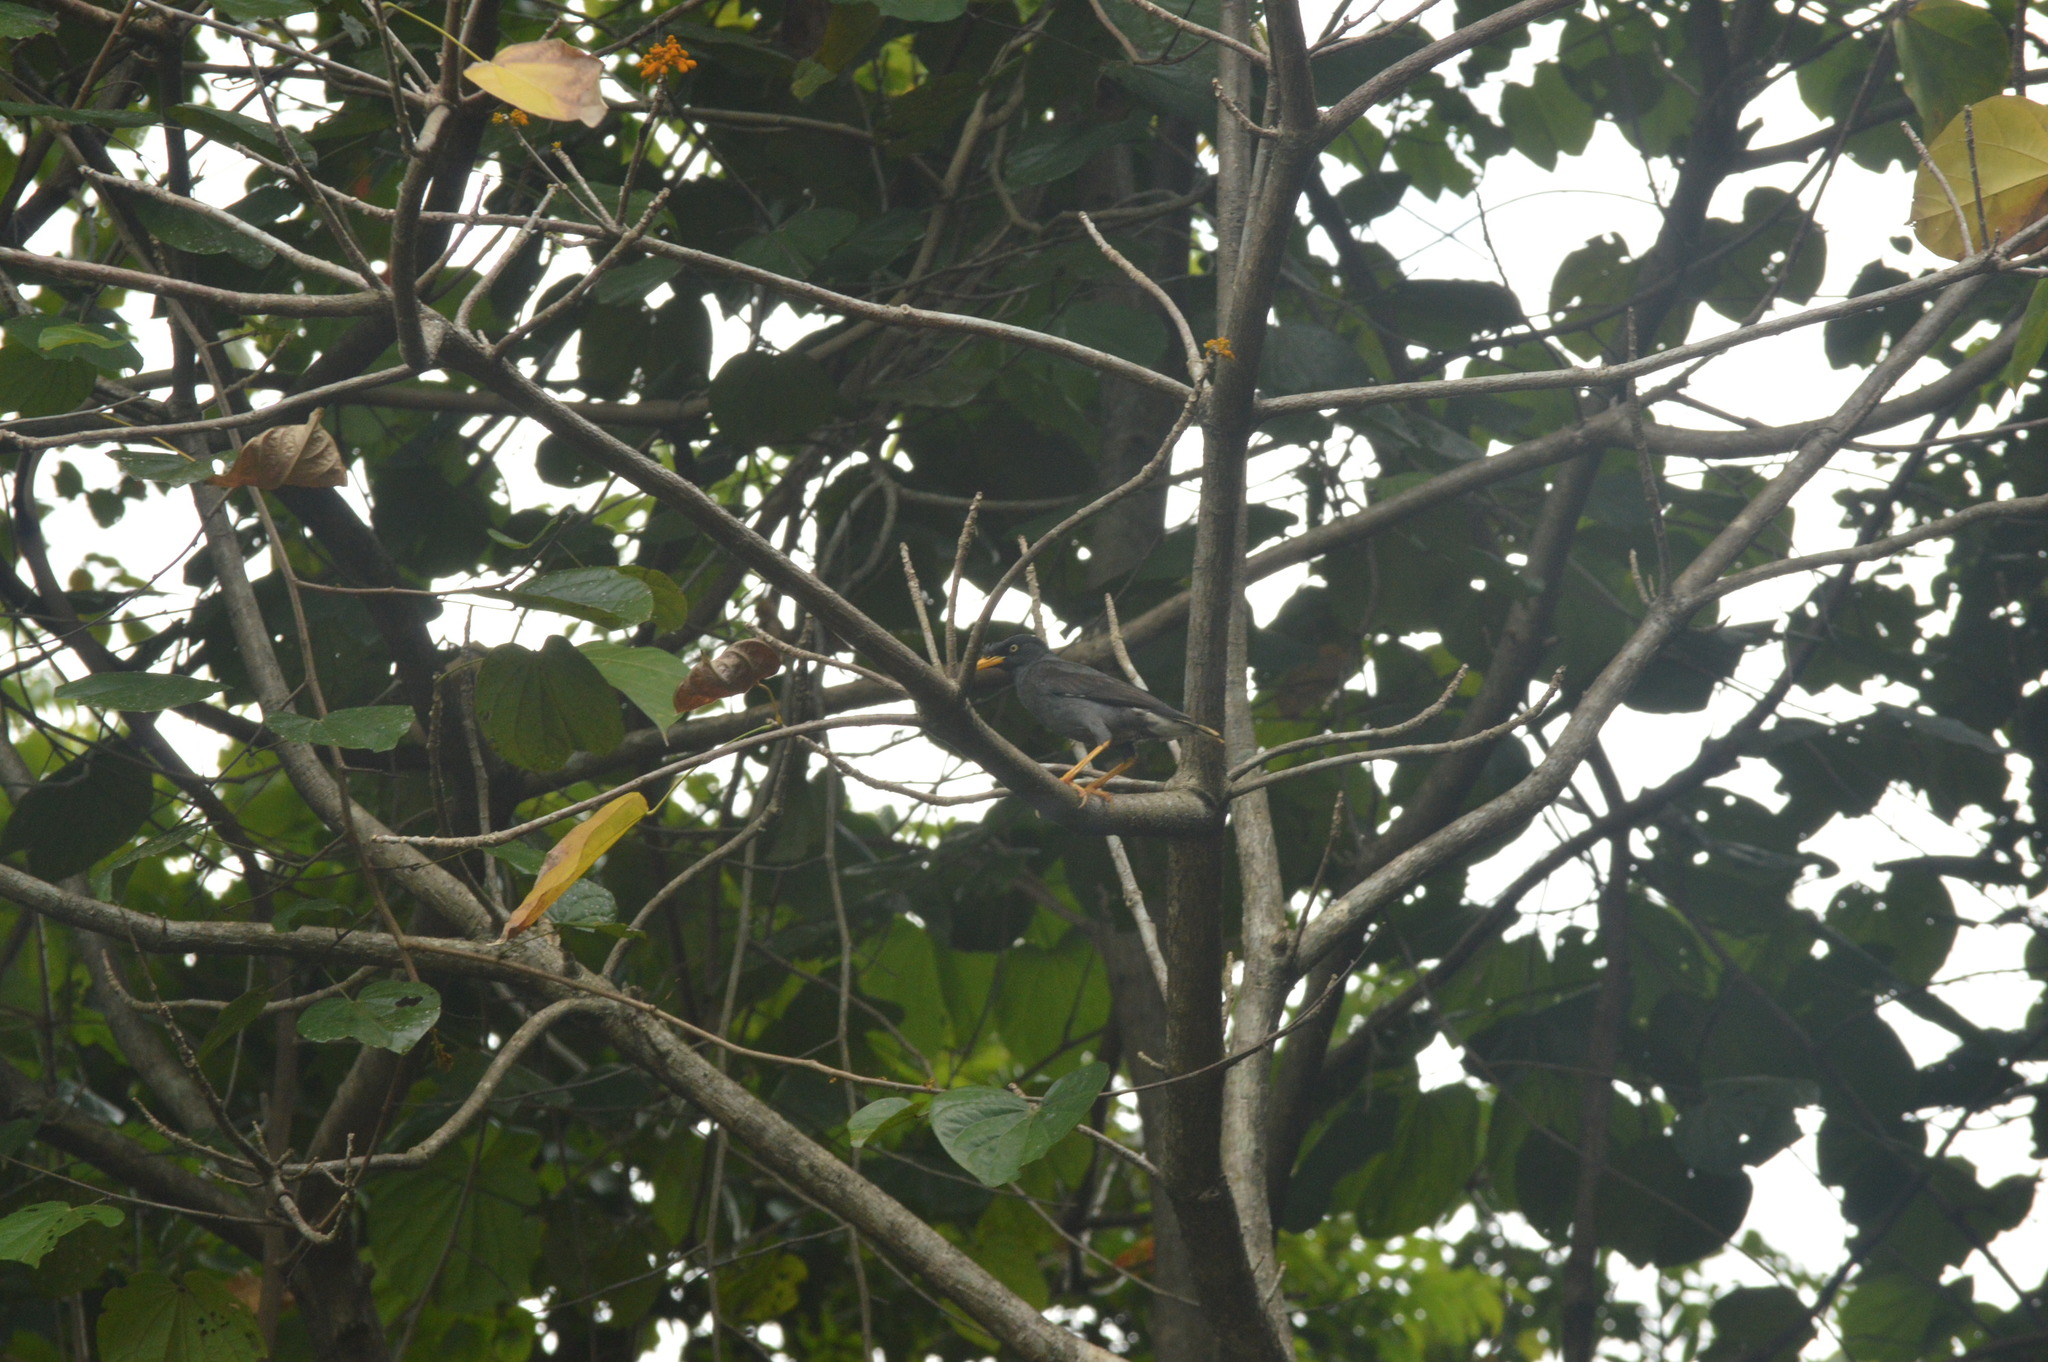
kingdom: Animalia
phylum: Chordata
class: Aves
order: Passeriformes
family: Sturnidae
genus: Acridotheres
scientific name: Acridotheres javanicus
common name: Javan myna
